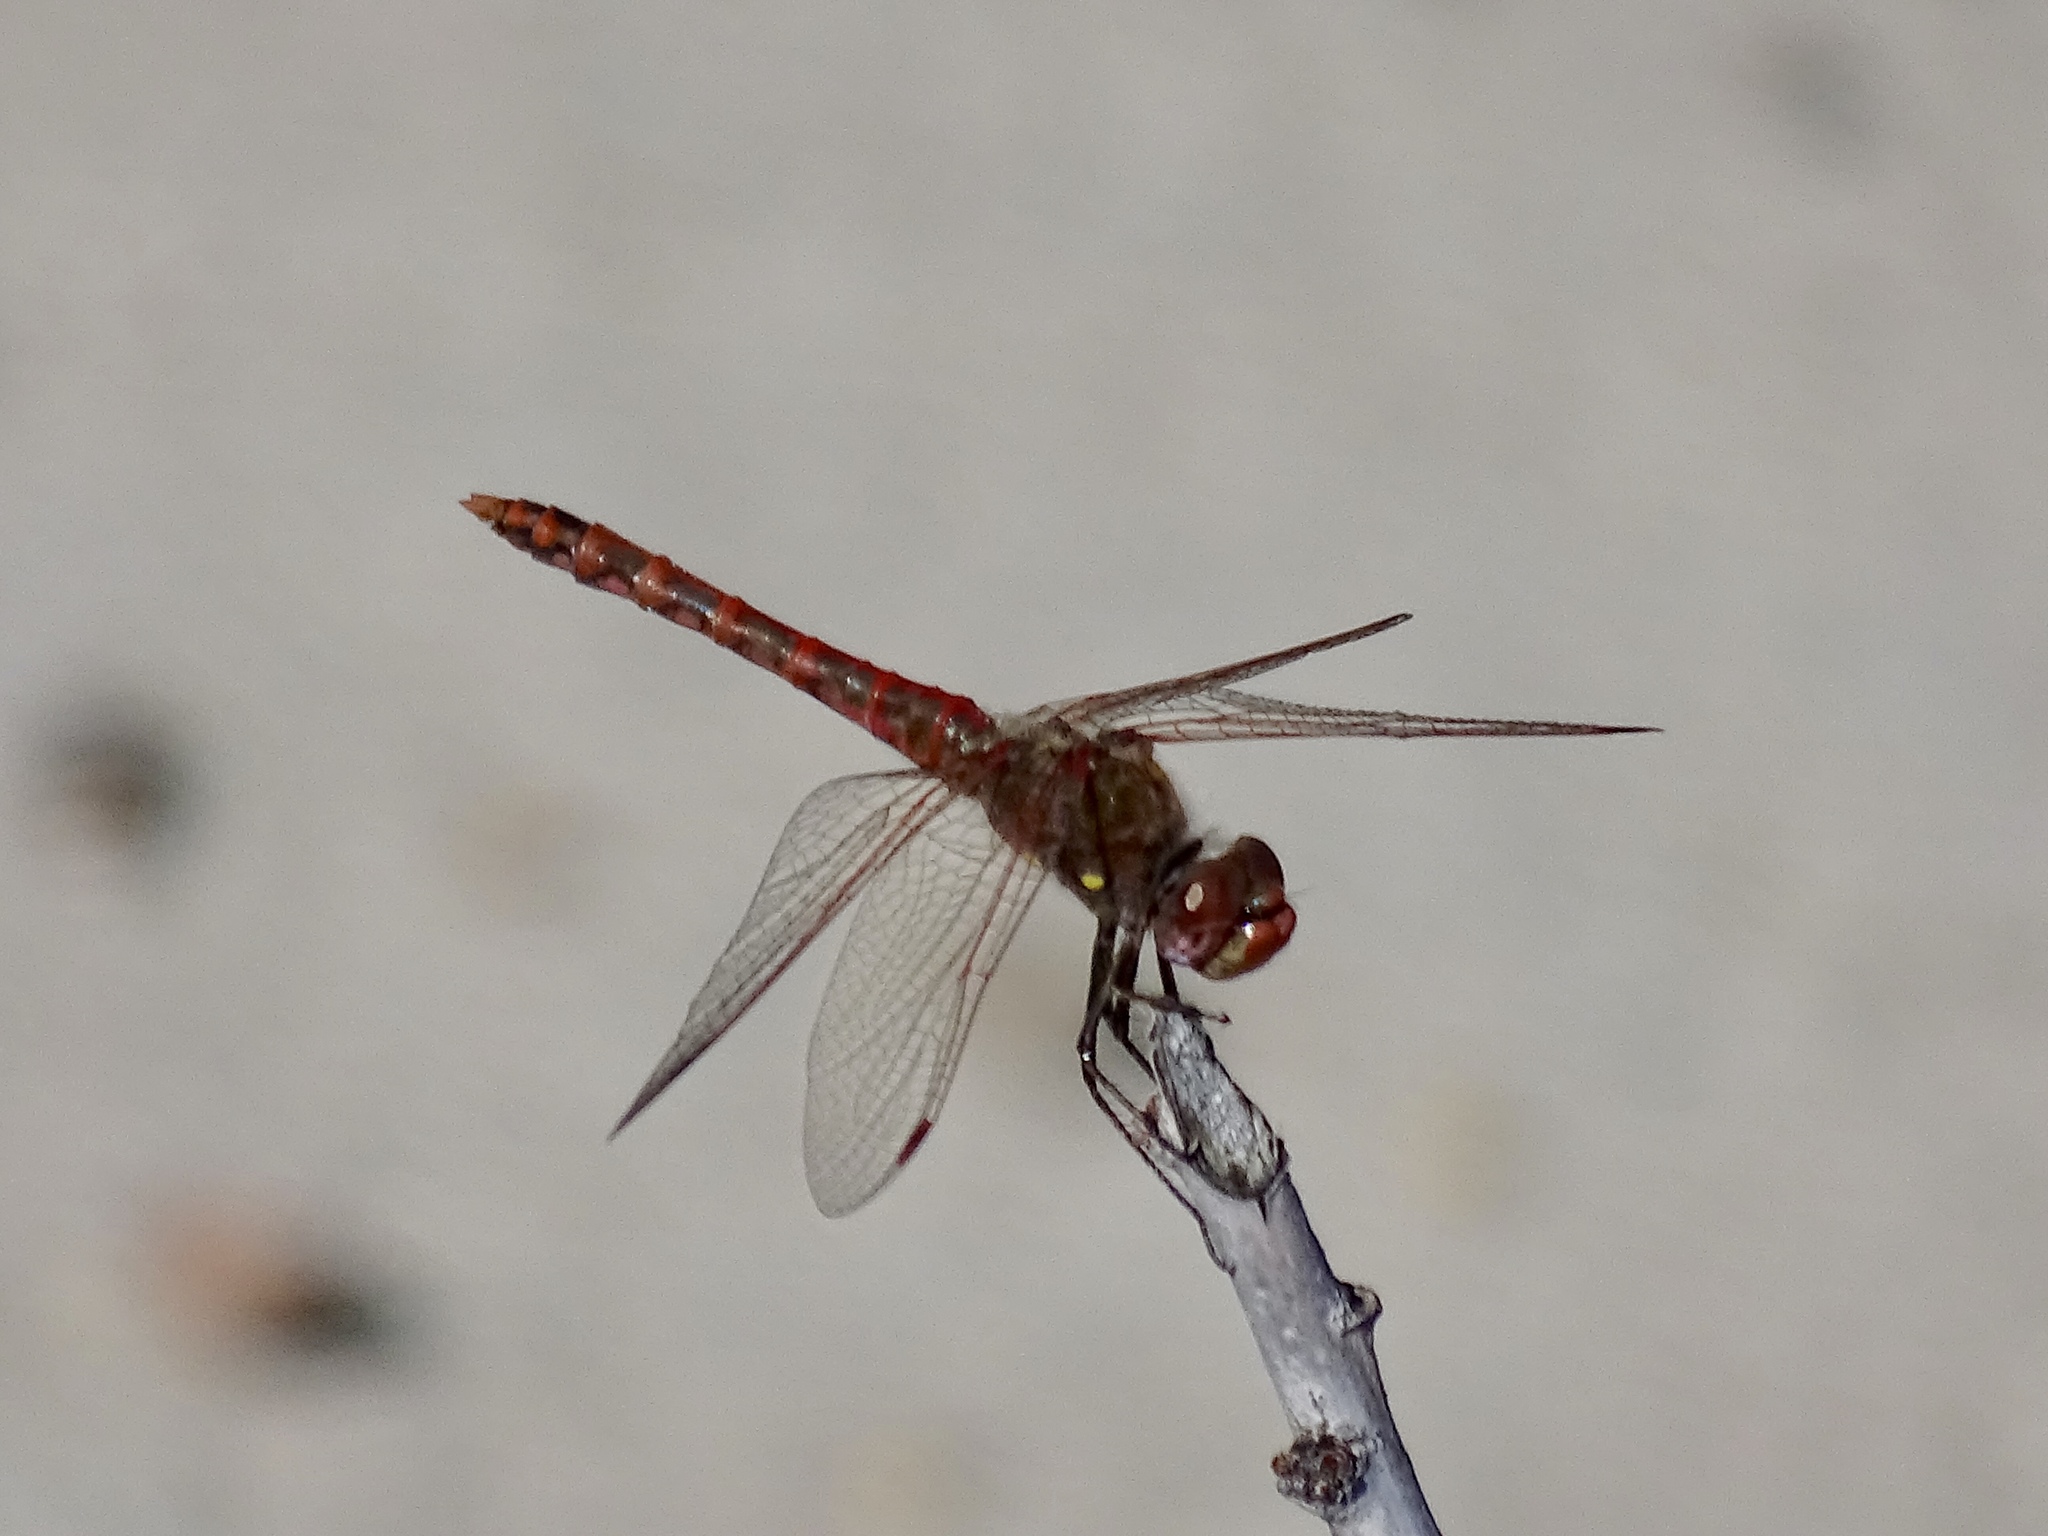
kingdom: Animalia
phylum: Arthropoda
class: Insecta
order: Odonata
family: Libellulidae
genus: Sympetrum
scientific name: Sympetrum corruptum
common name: Variegated meadowhawk
